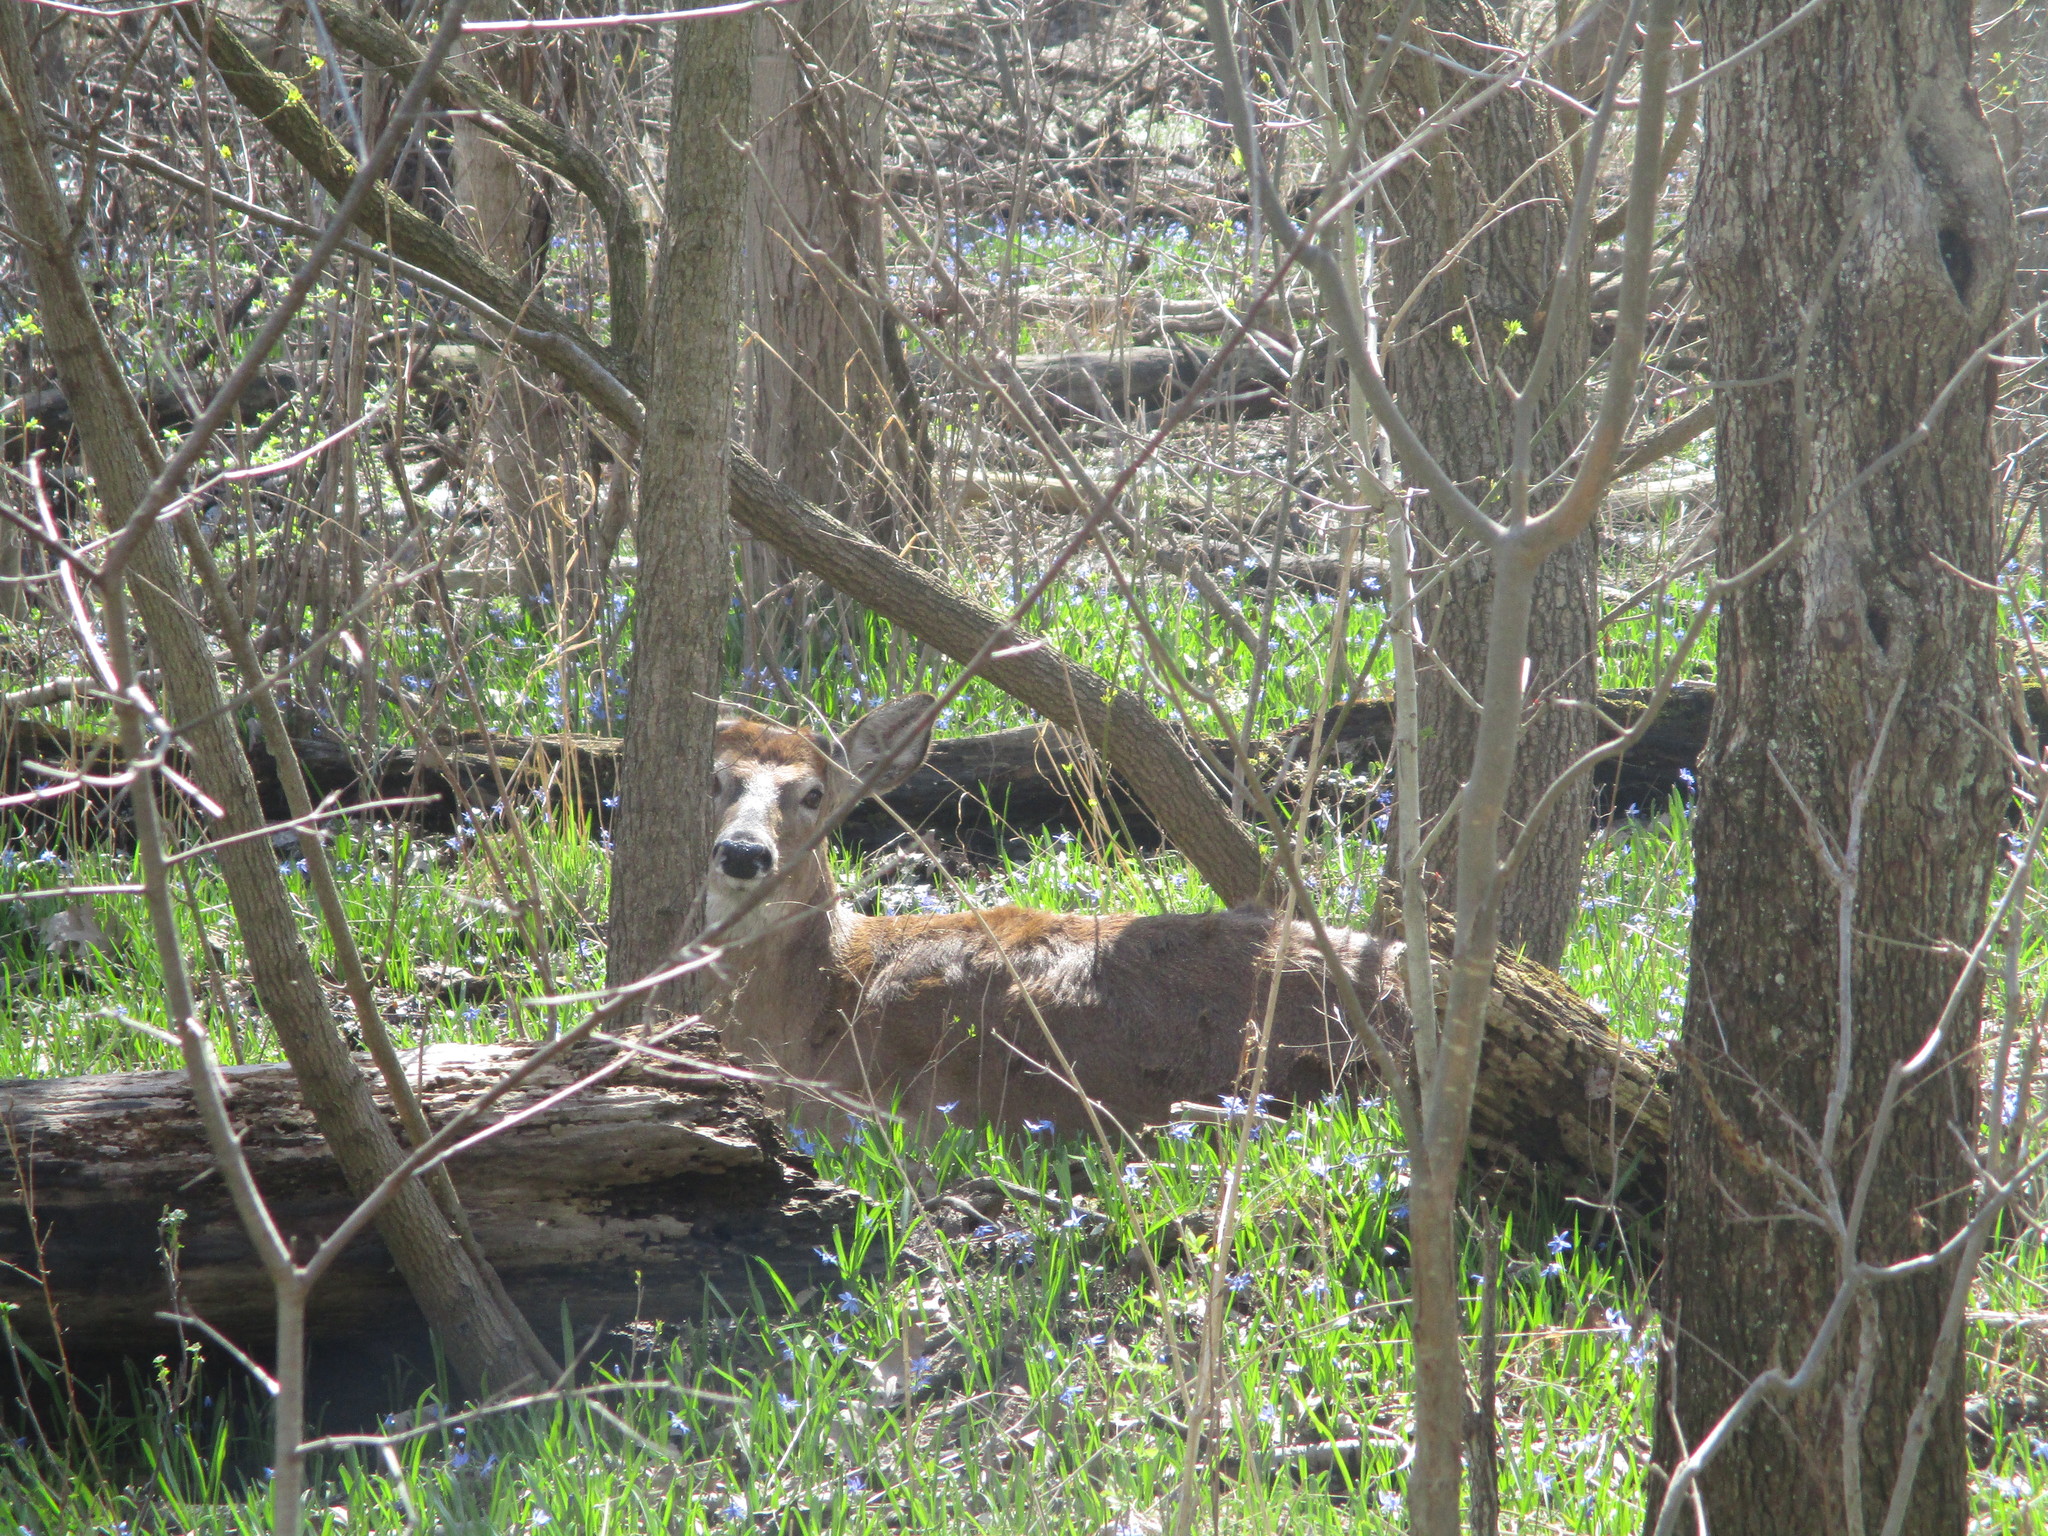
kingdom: Animalia
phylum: Chordata
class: Mammalia
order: Artiodactyla
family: Cervidae
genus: Odocoileus
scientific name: Odocoileus virginianus
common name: White-tailed deer
